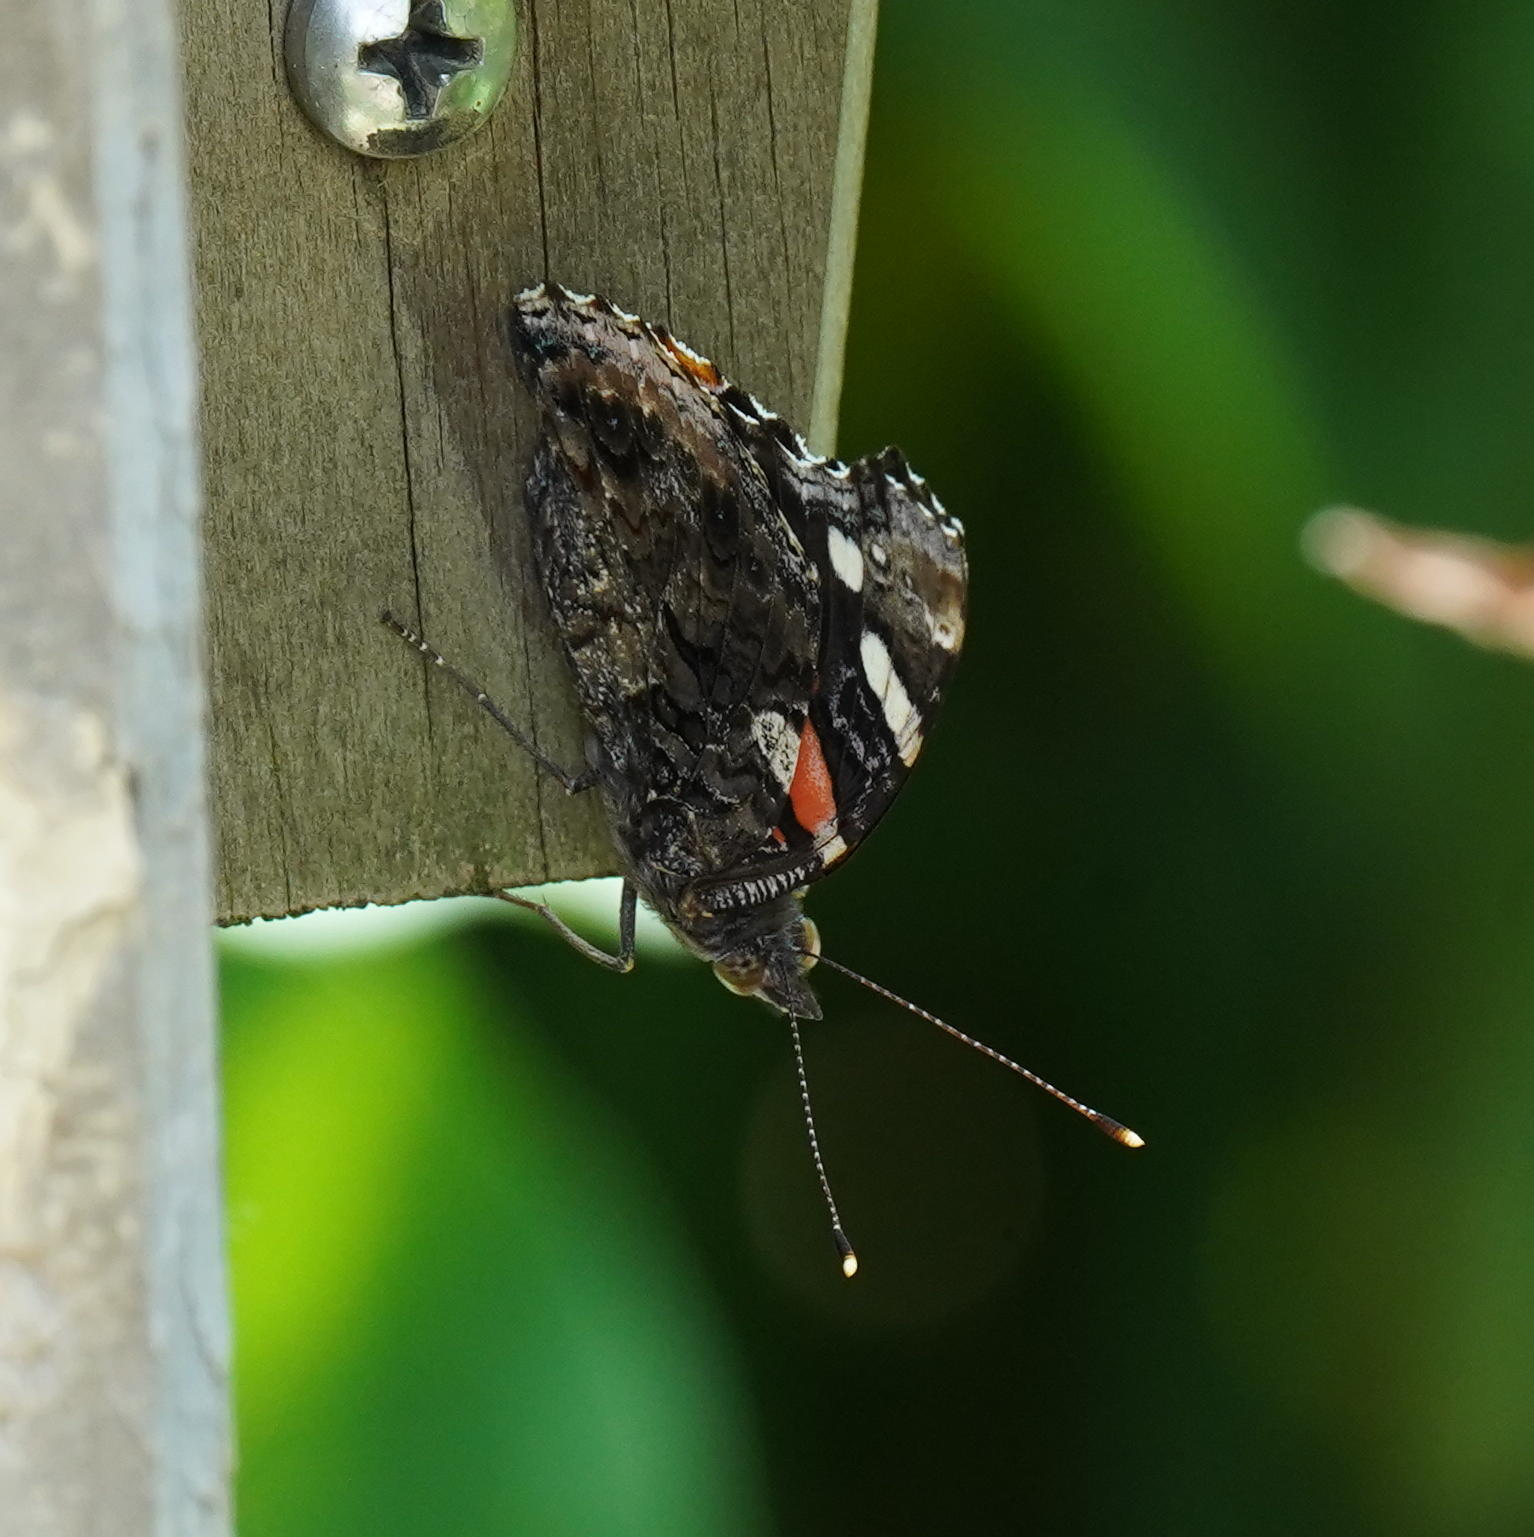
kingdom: Animalia
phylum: Arthropoda
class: Insecta
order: Lepidoptera
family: Nymphalidae
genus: Vanessa
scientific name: Vanessa atalanta
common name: Red admiral
